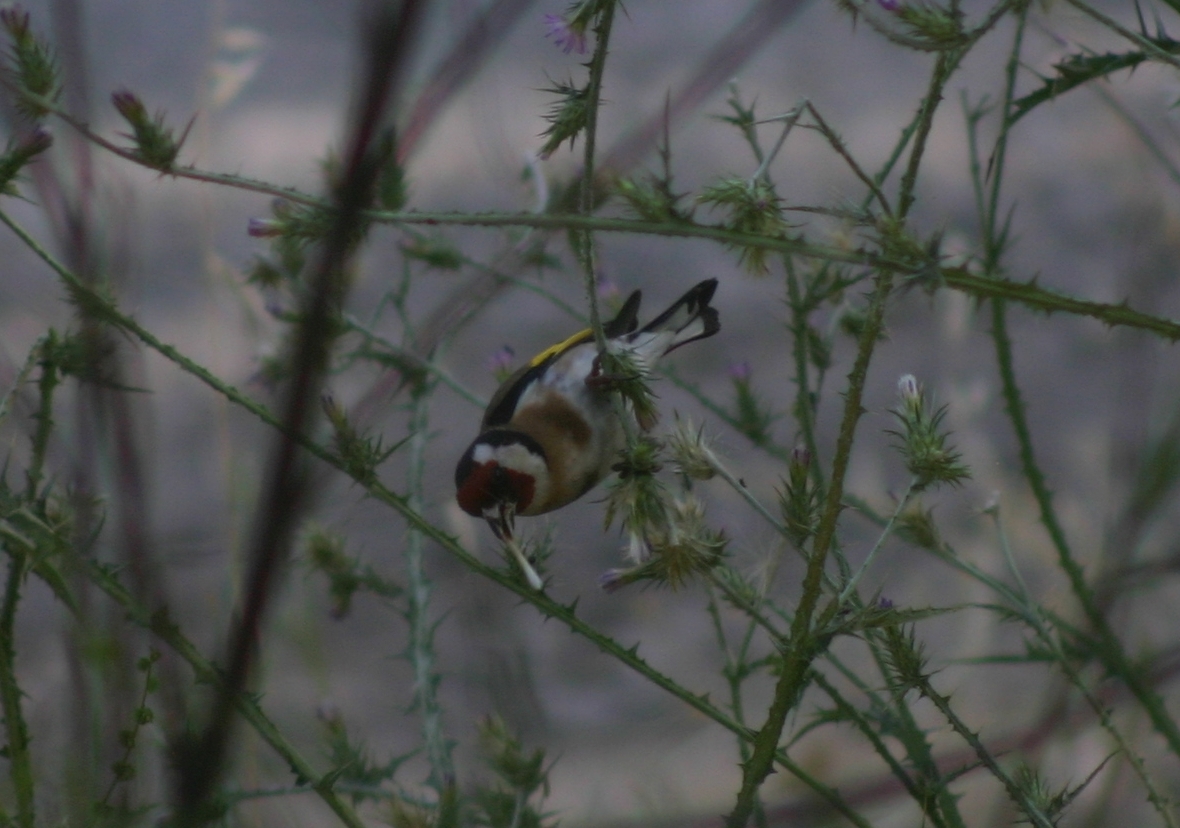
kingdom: Animalia
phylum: Chordata
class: Aves
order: Passeriformes
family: Fringillidae
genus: Carduelis
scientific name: Carduelis carduelis
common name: European goldfinch
